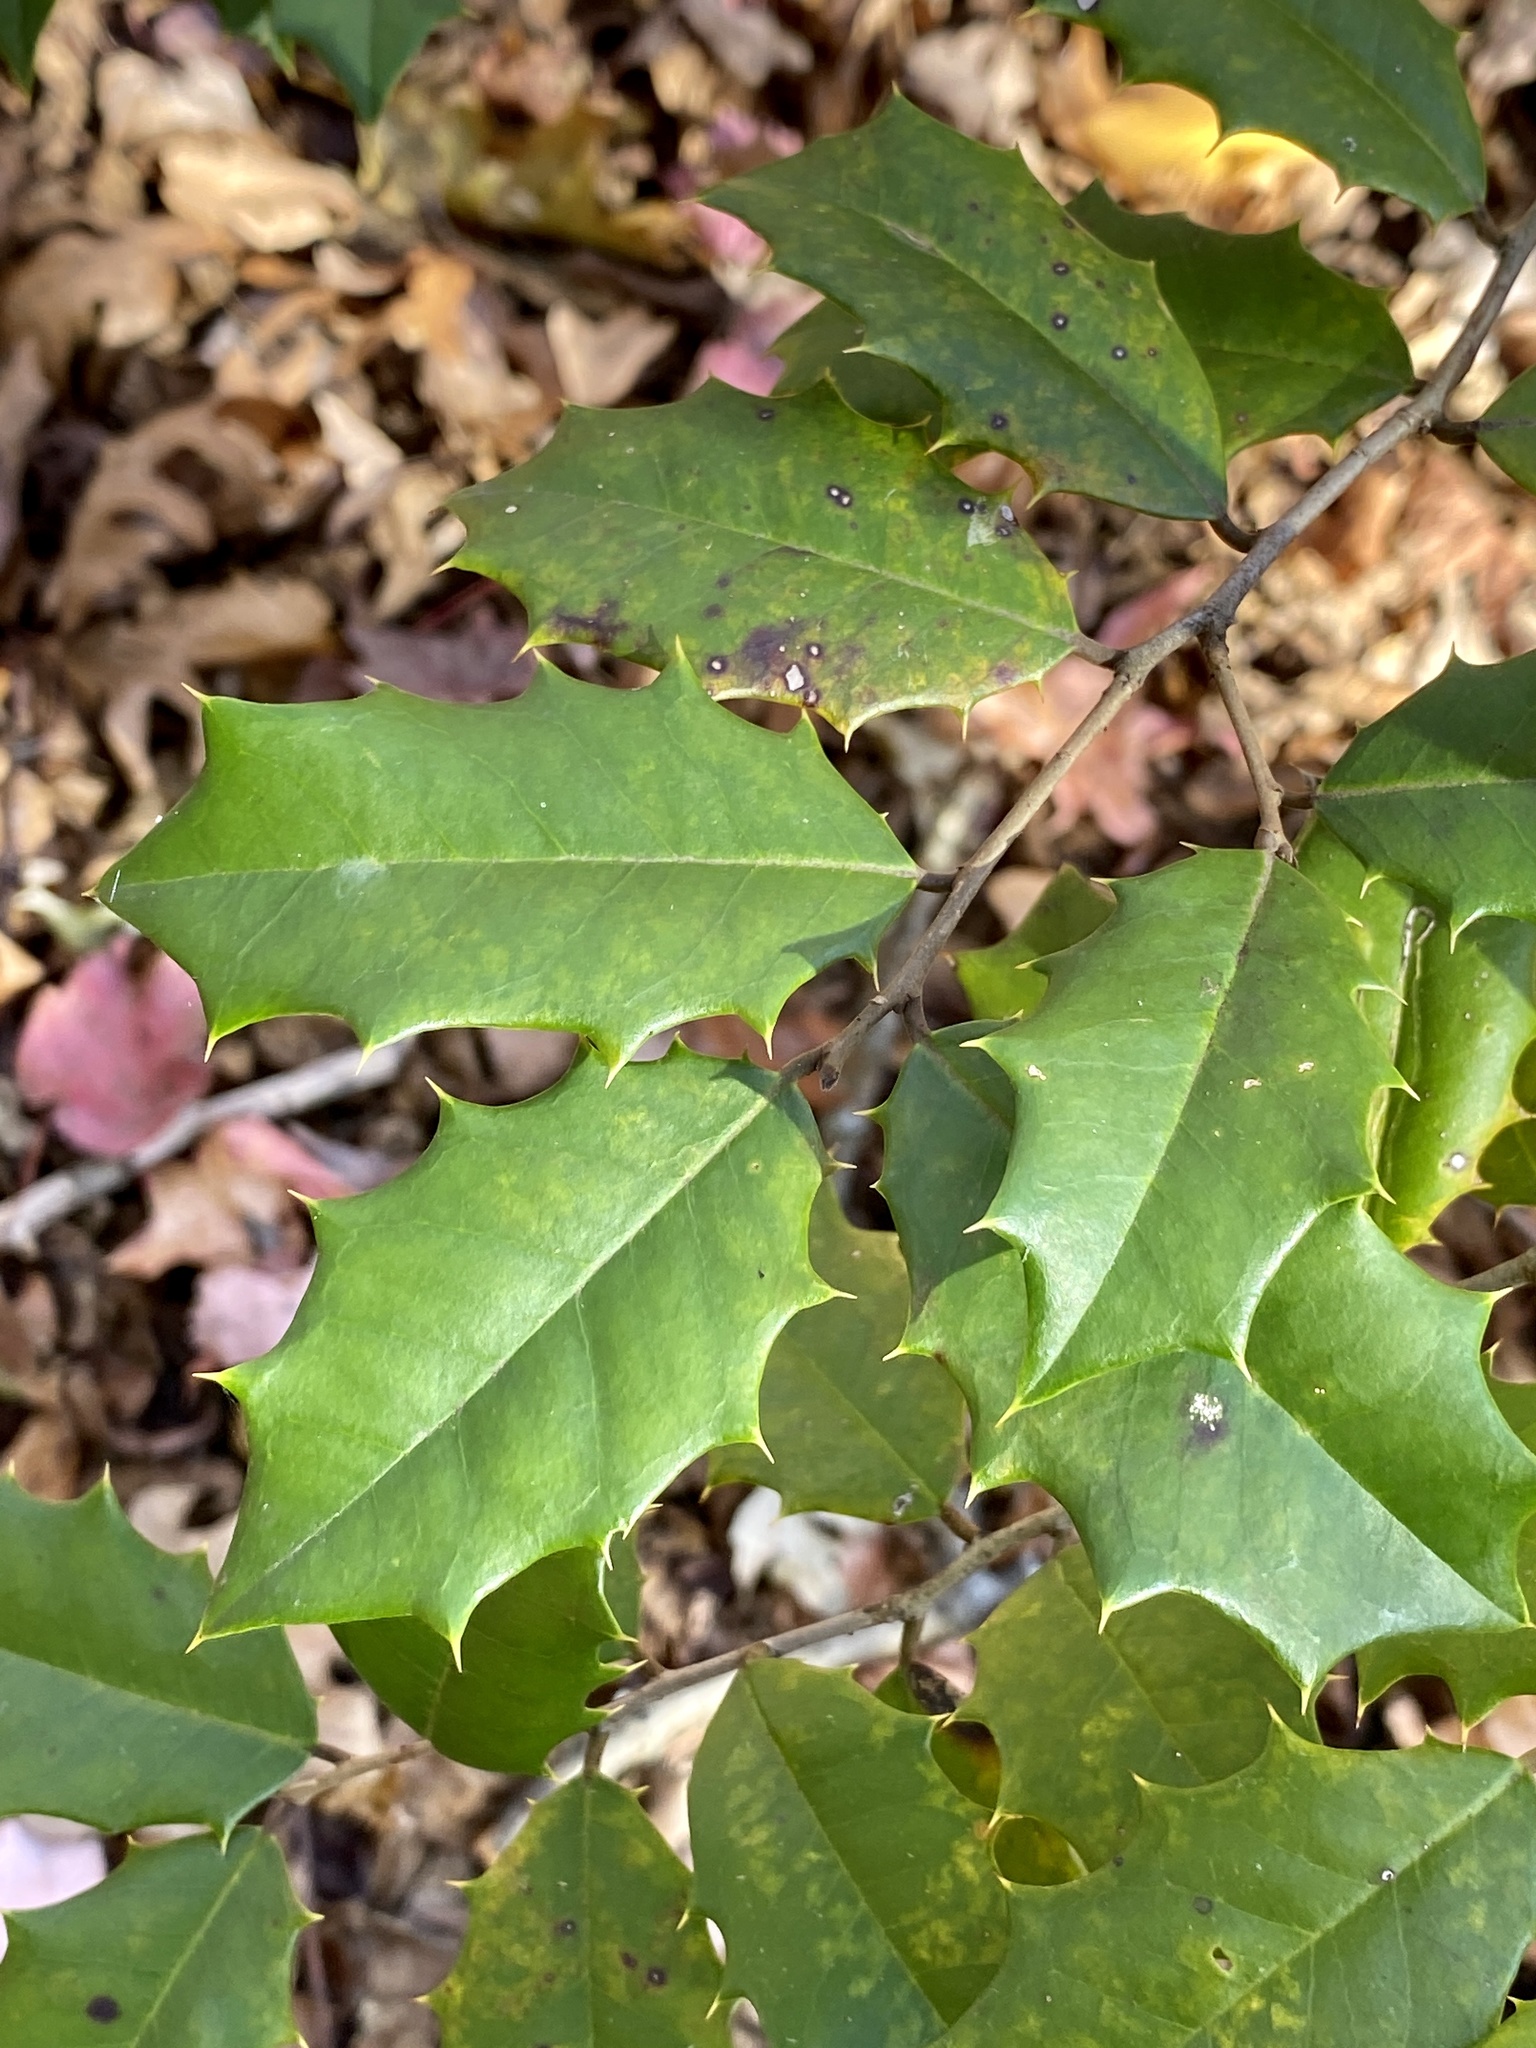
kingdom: Plantae
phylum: Tracheophyta
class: Magnoliopsida
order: Aquifoliales
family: Aquifoliaceae
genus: Ilex
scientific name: Ilex opaca
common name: American holly
